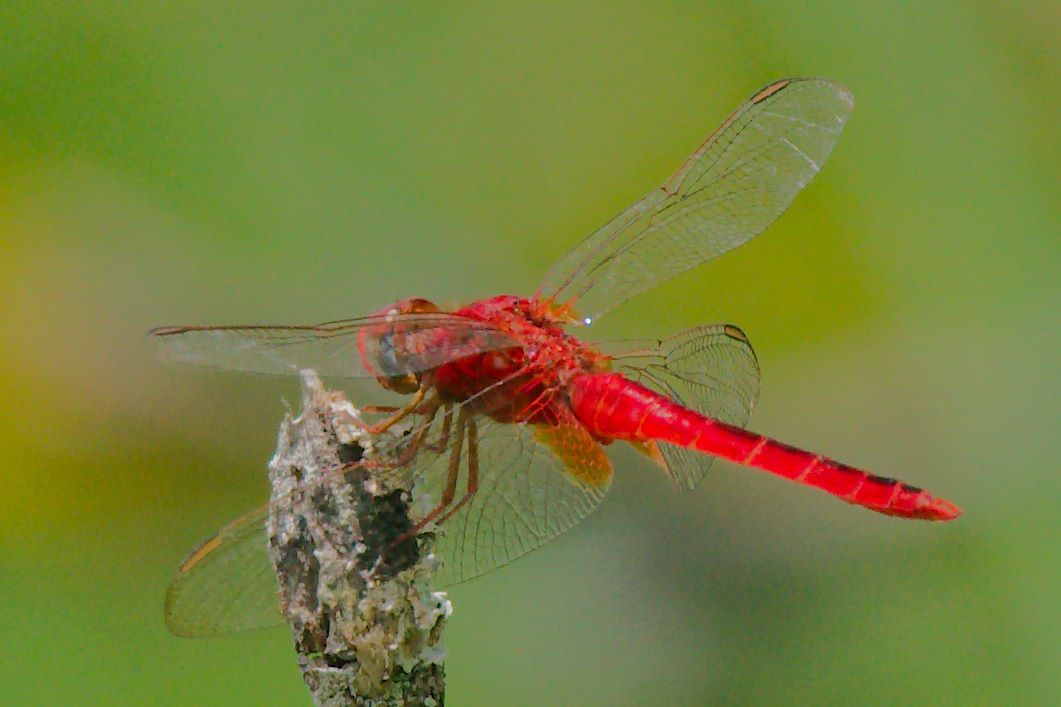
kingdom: Animalia
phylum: Arthropoda
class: Insecta
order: Odonata
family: Libellulidae
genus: Crocothemis
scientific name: Crocothemis servilia
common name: Scarlet skimmer
